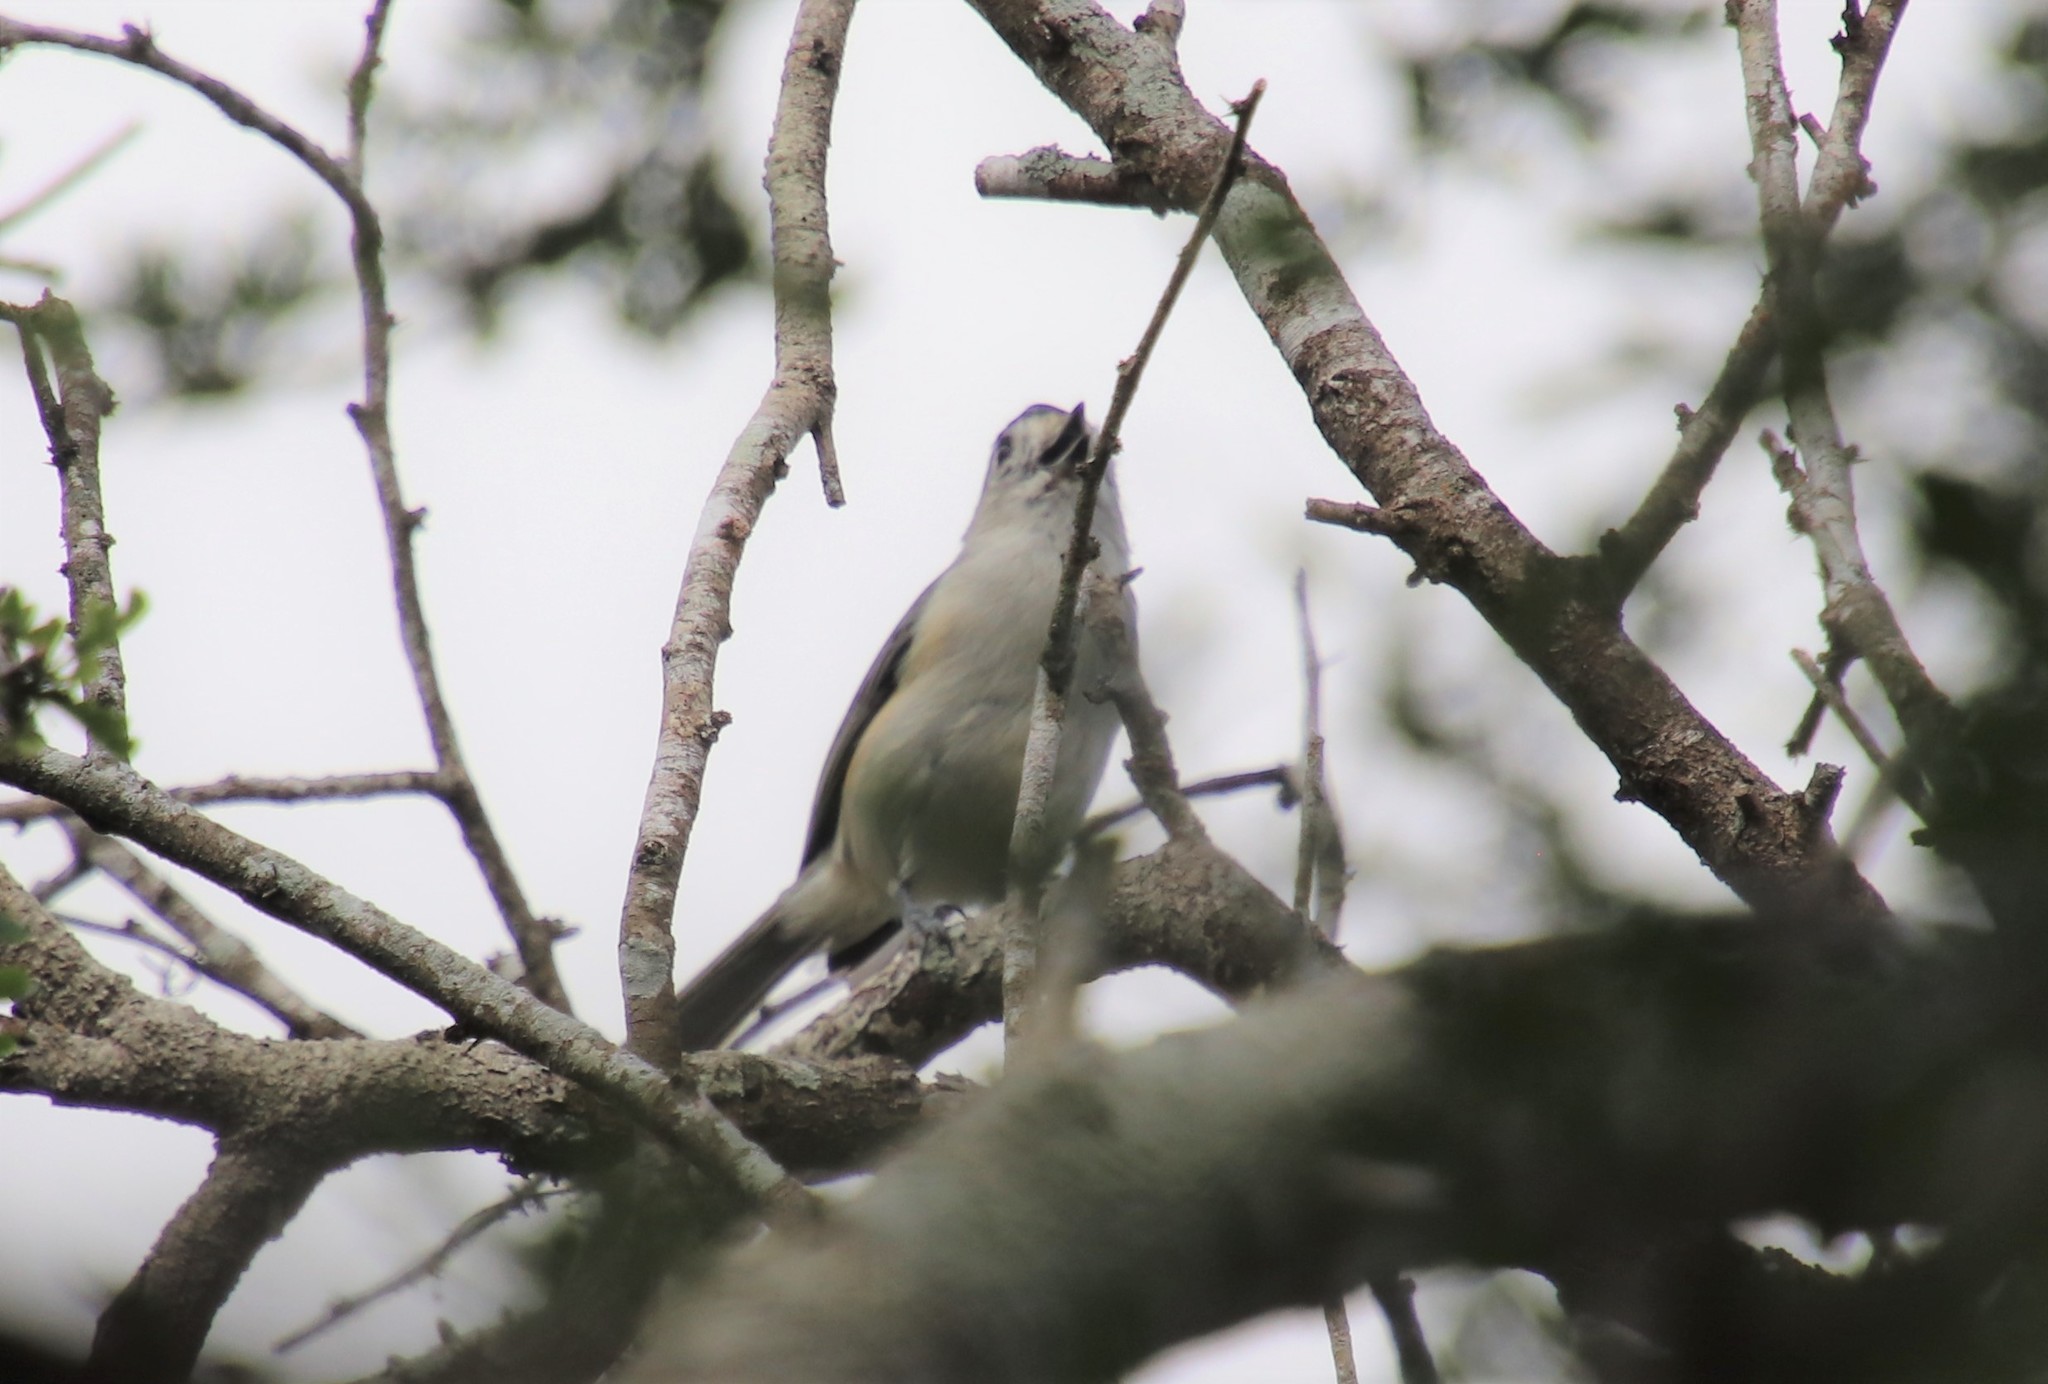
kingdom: Animalia
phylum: Chordata
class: Aves
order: Passeriformes
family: Paridae
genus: Baeolophus
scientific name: Baeolophus atricristatus
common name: Black-crested titmouse
